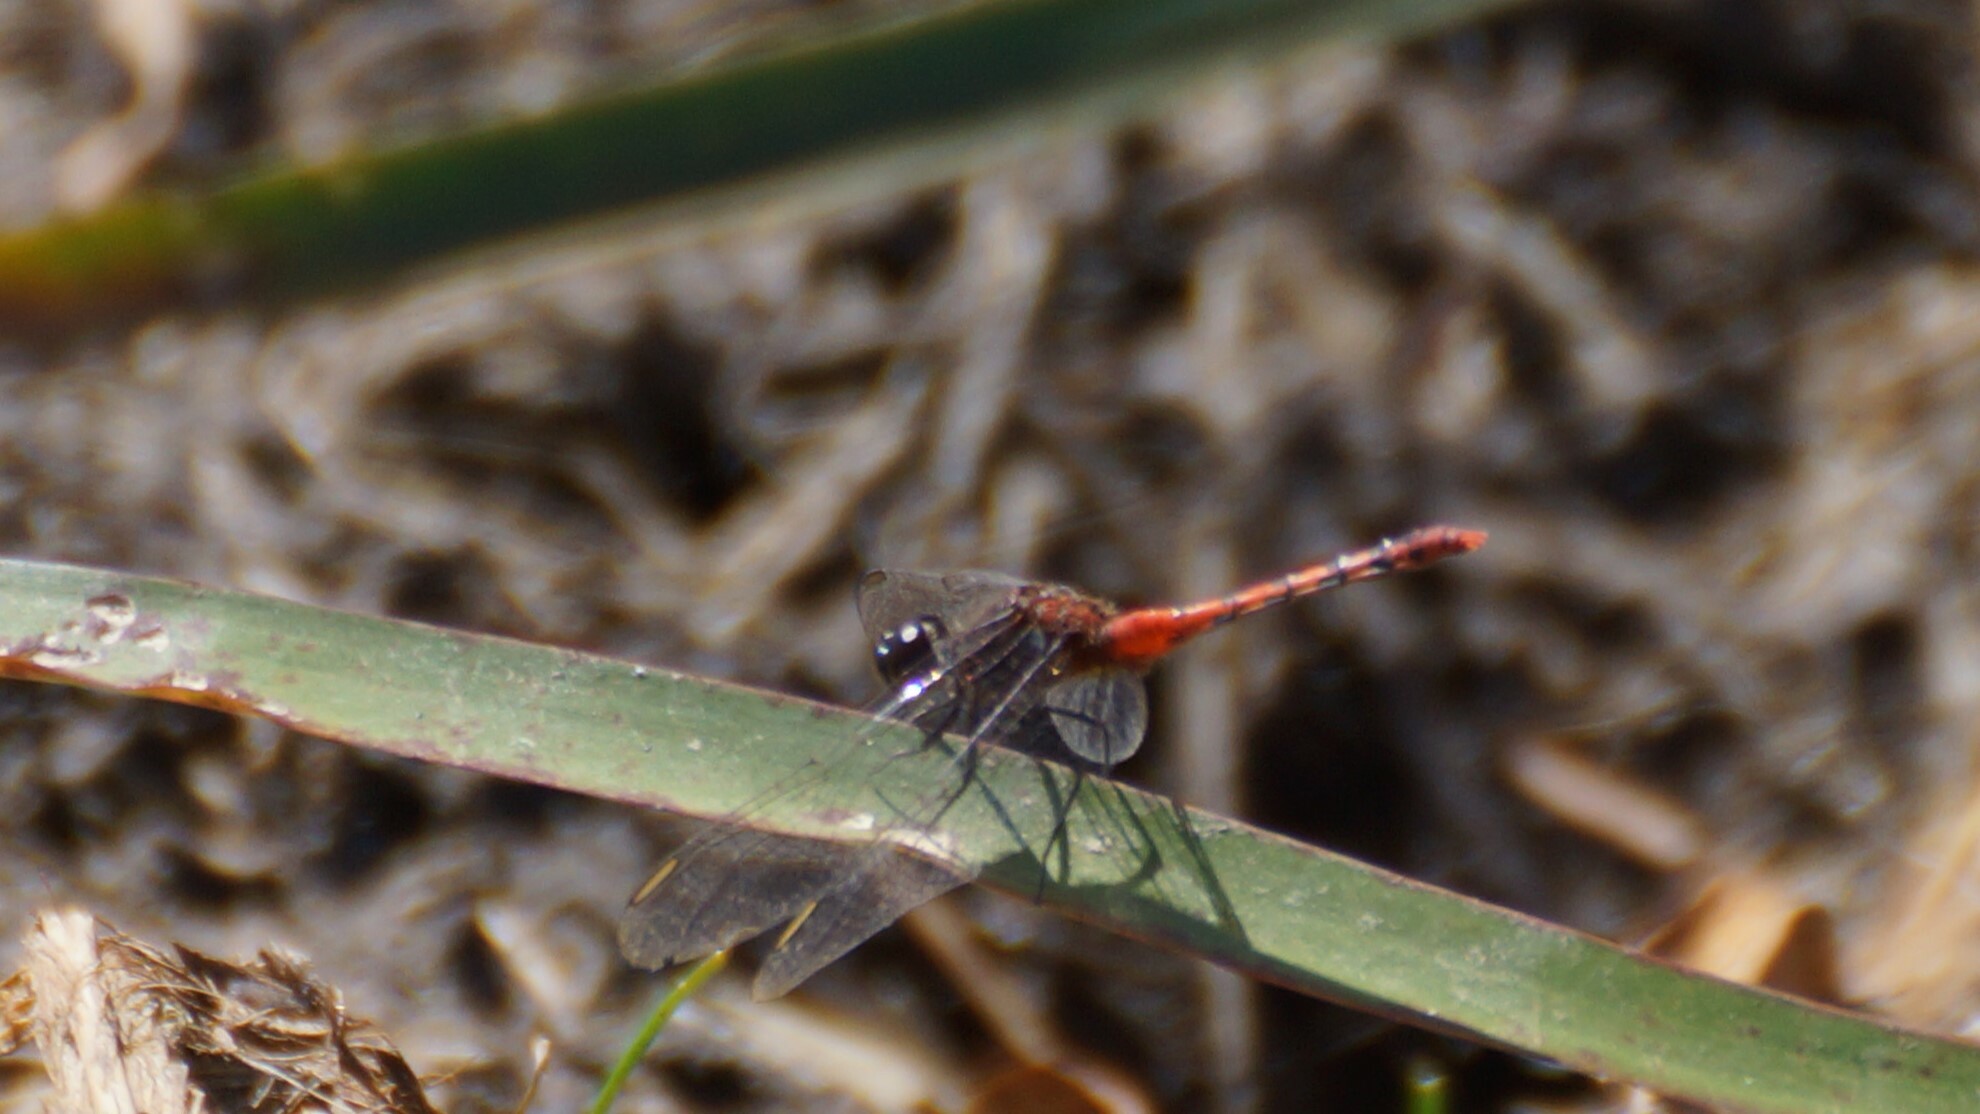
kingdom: Animalia
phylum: Arthropoda
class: Insecta
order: Odonata
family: Libellulidae
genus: Diplacodes
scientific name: Diplacodes melanopsis
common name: Black-faced percher
